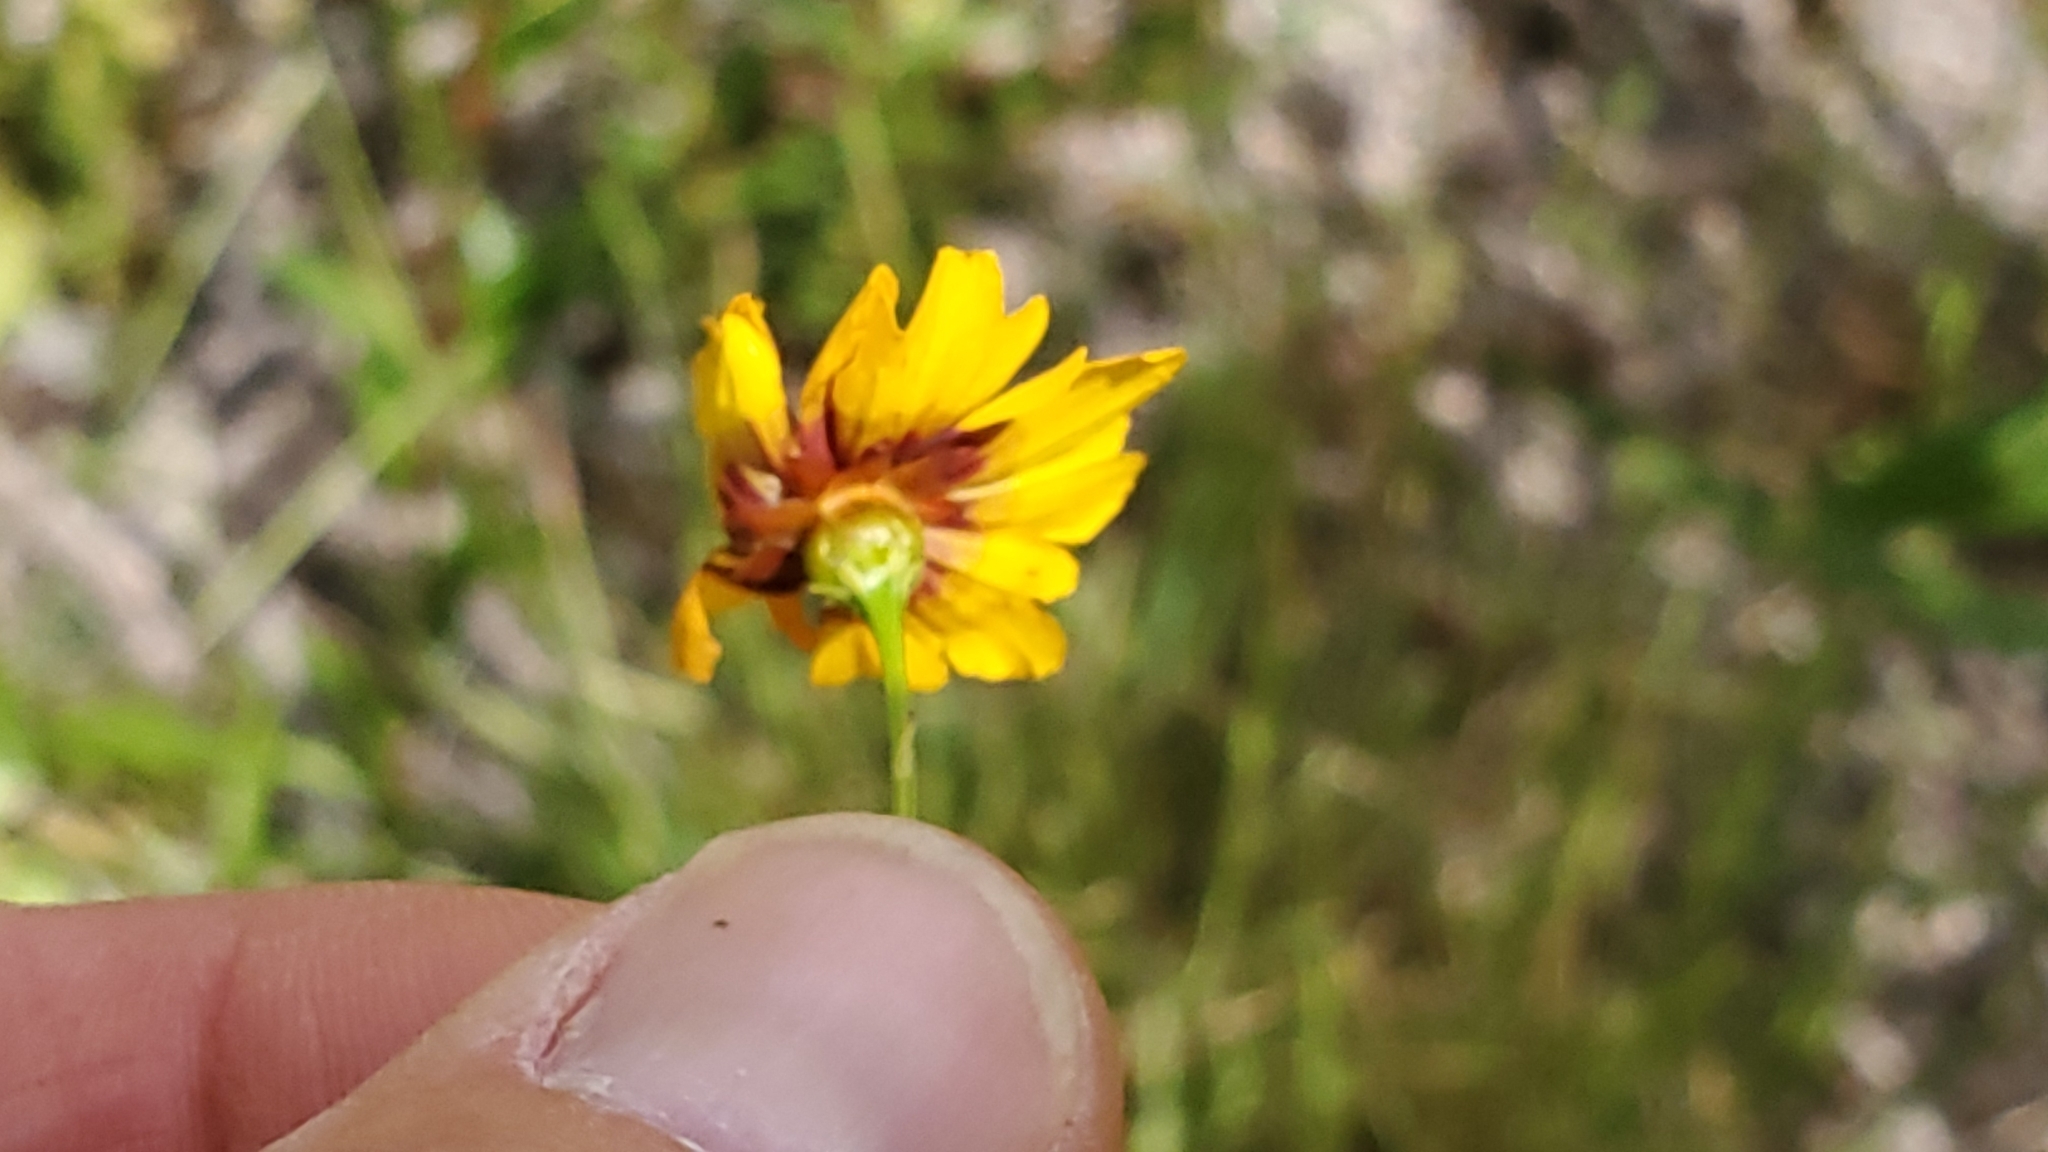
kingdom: Plantae
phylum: Tracheophyta
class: Magnoliopsida
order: Asterales
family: Asteraceae
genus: Coreopsis
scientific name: Coreopsis tinctoria
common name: Garden tickseed
